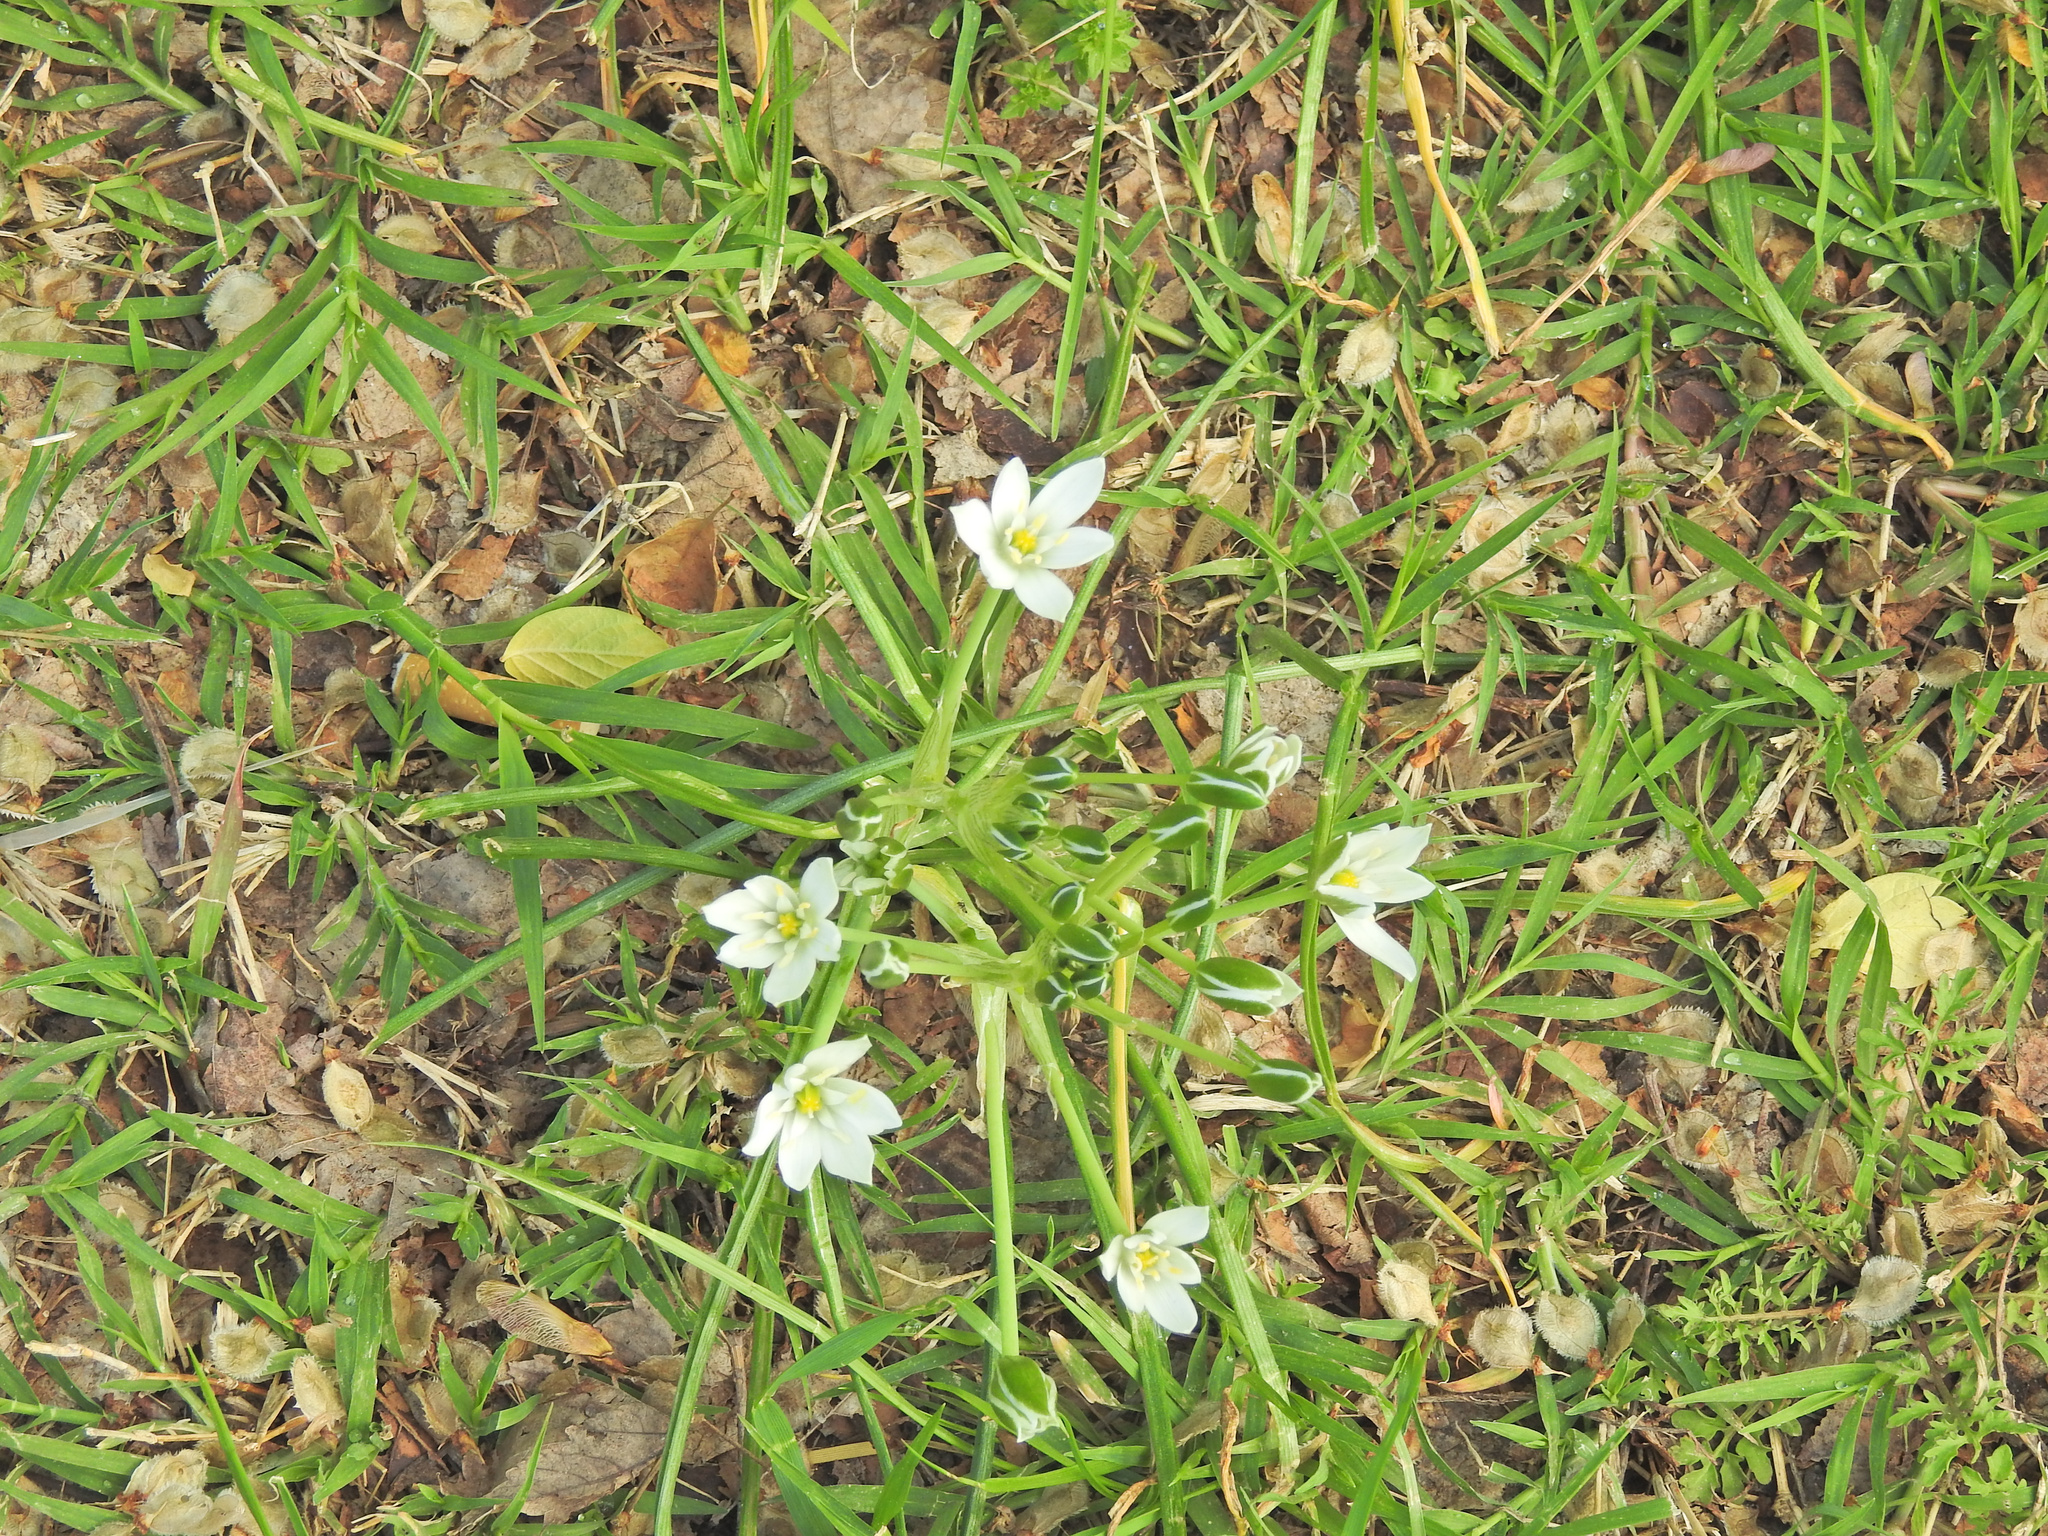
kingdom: Plantae
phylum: Tracheophyta
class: Liliopsida
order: Asparagales
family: Asparagaceae
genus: Ornithogalum
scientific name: Ornithogalum umbellatum
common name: Garden star-of-bethlehem
